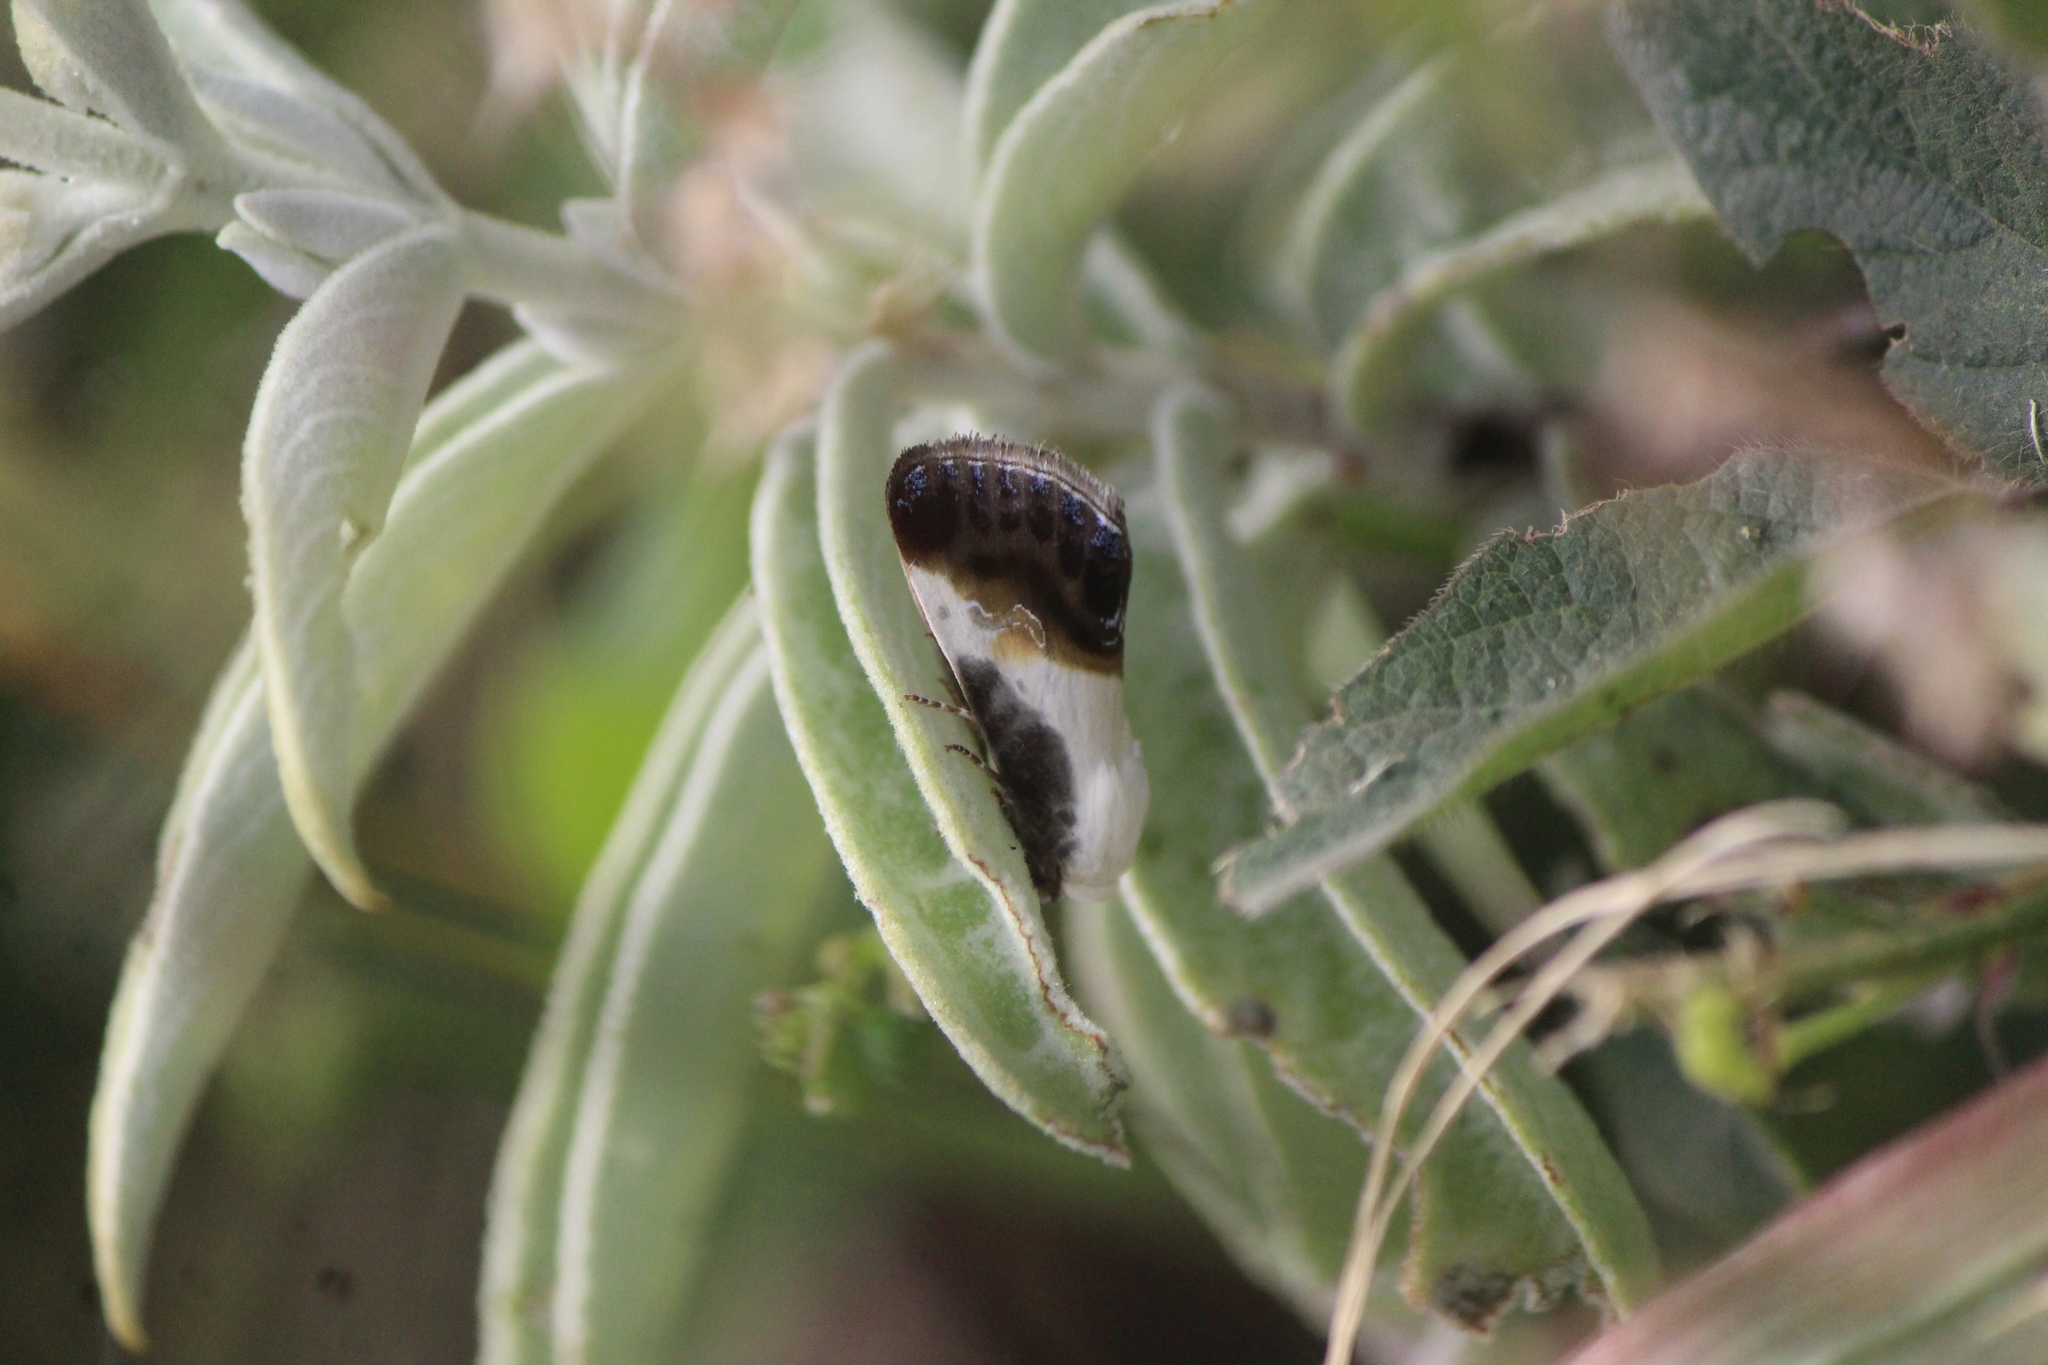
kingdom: Animalia
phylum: Arthropoda
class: Insecta
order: Lepidoptera
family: Noctuidae
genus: Acontia
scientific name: Acontia jaliscana
